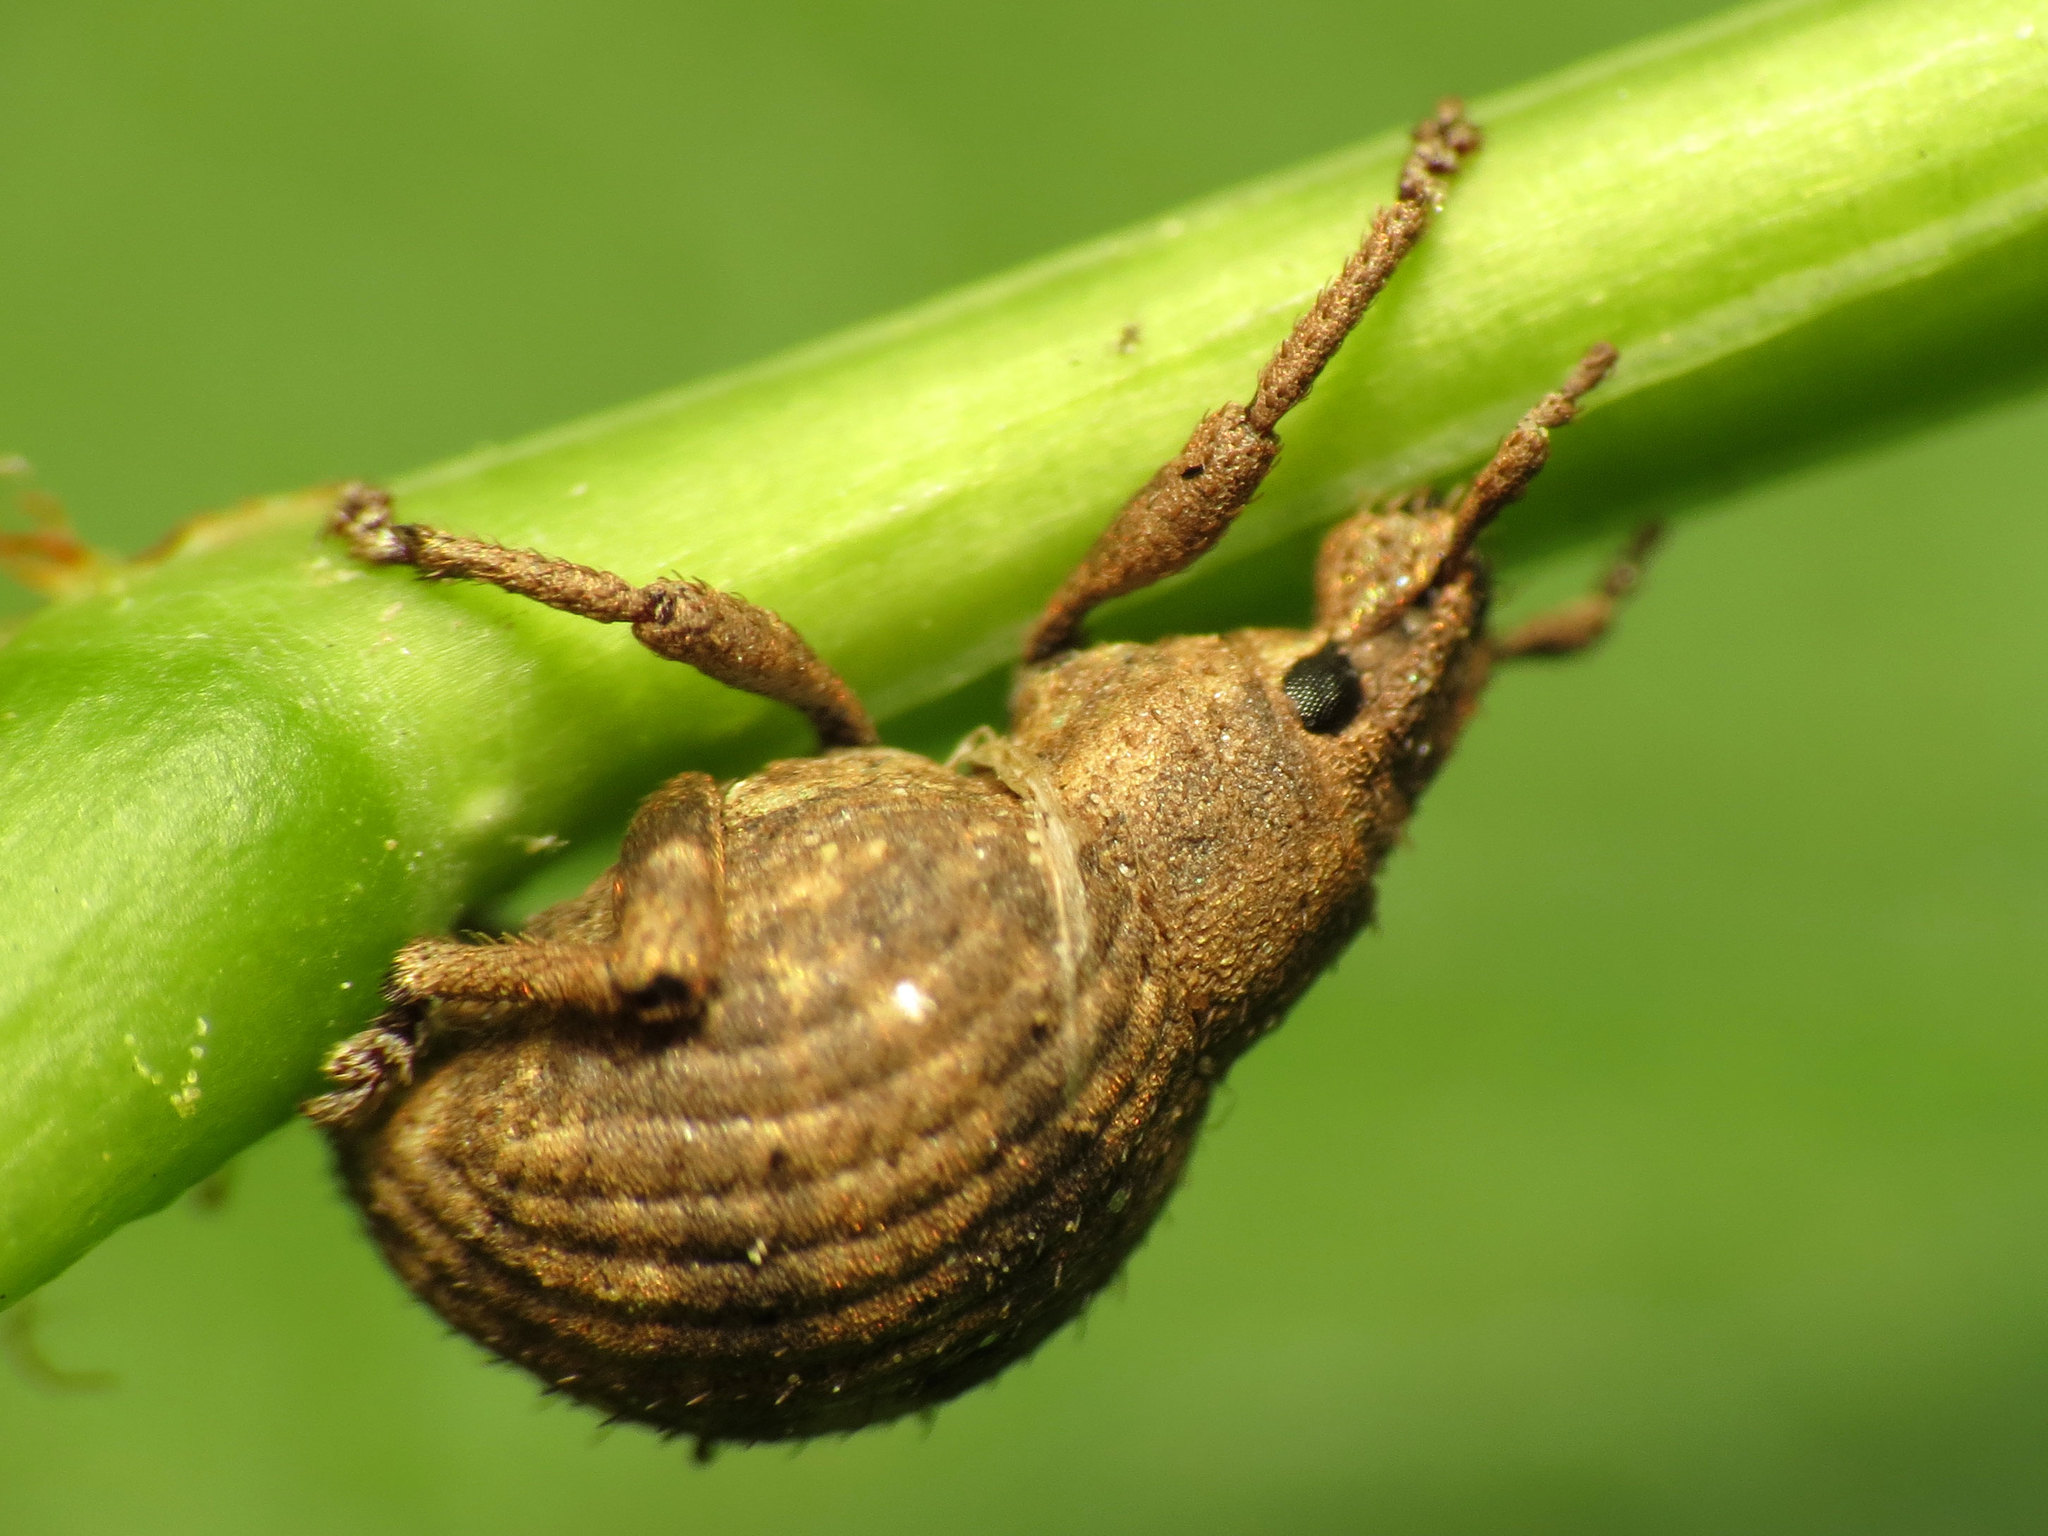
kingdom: Animalia
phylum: Arthropoda
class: Insecta
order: Coleoptera
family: Curculionidae
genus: Pseudocneorhinus
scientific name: Pseudocneorhinus bifasciatus
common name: Two-banded japanese weevil
